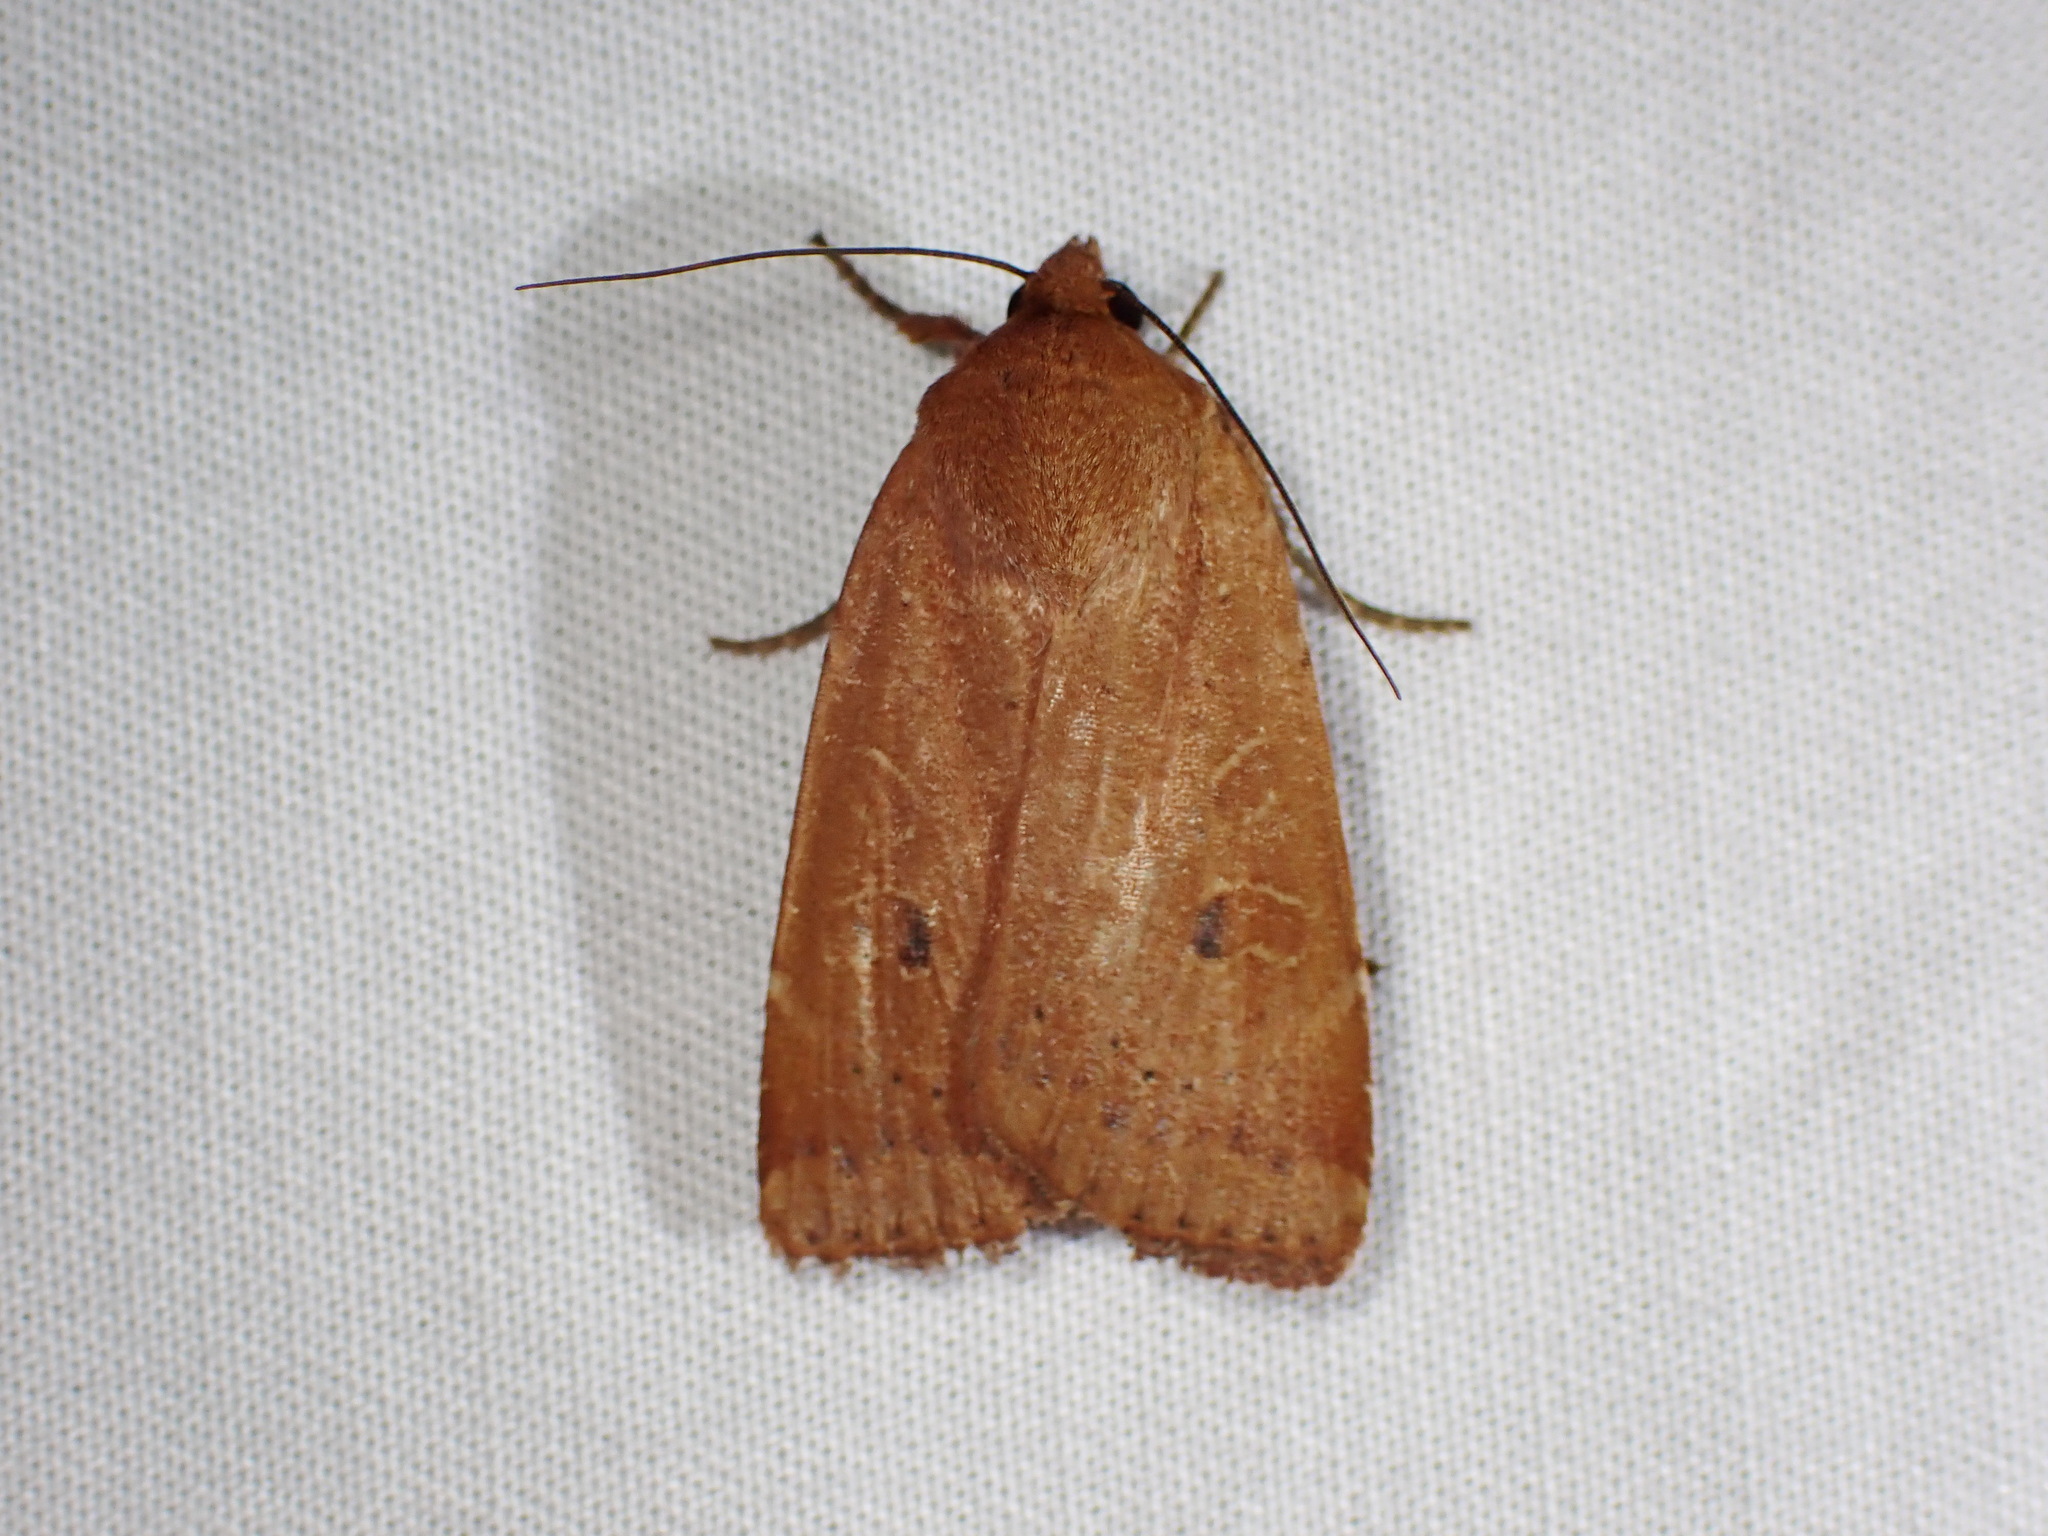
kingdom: Animalia
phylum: Arthropoda
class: Insecta
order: Lepidoptera
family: Noctuidae
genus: Noctua
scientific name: Noctua comes
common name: Lesser yellow underwing
